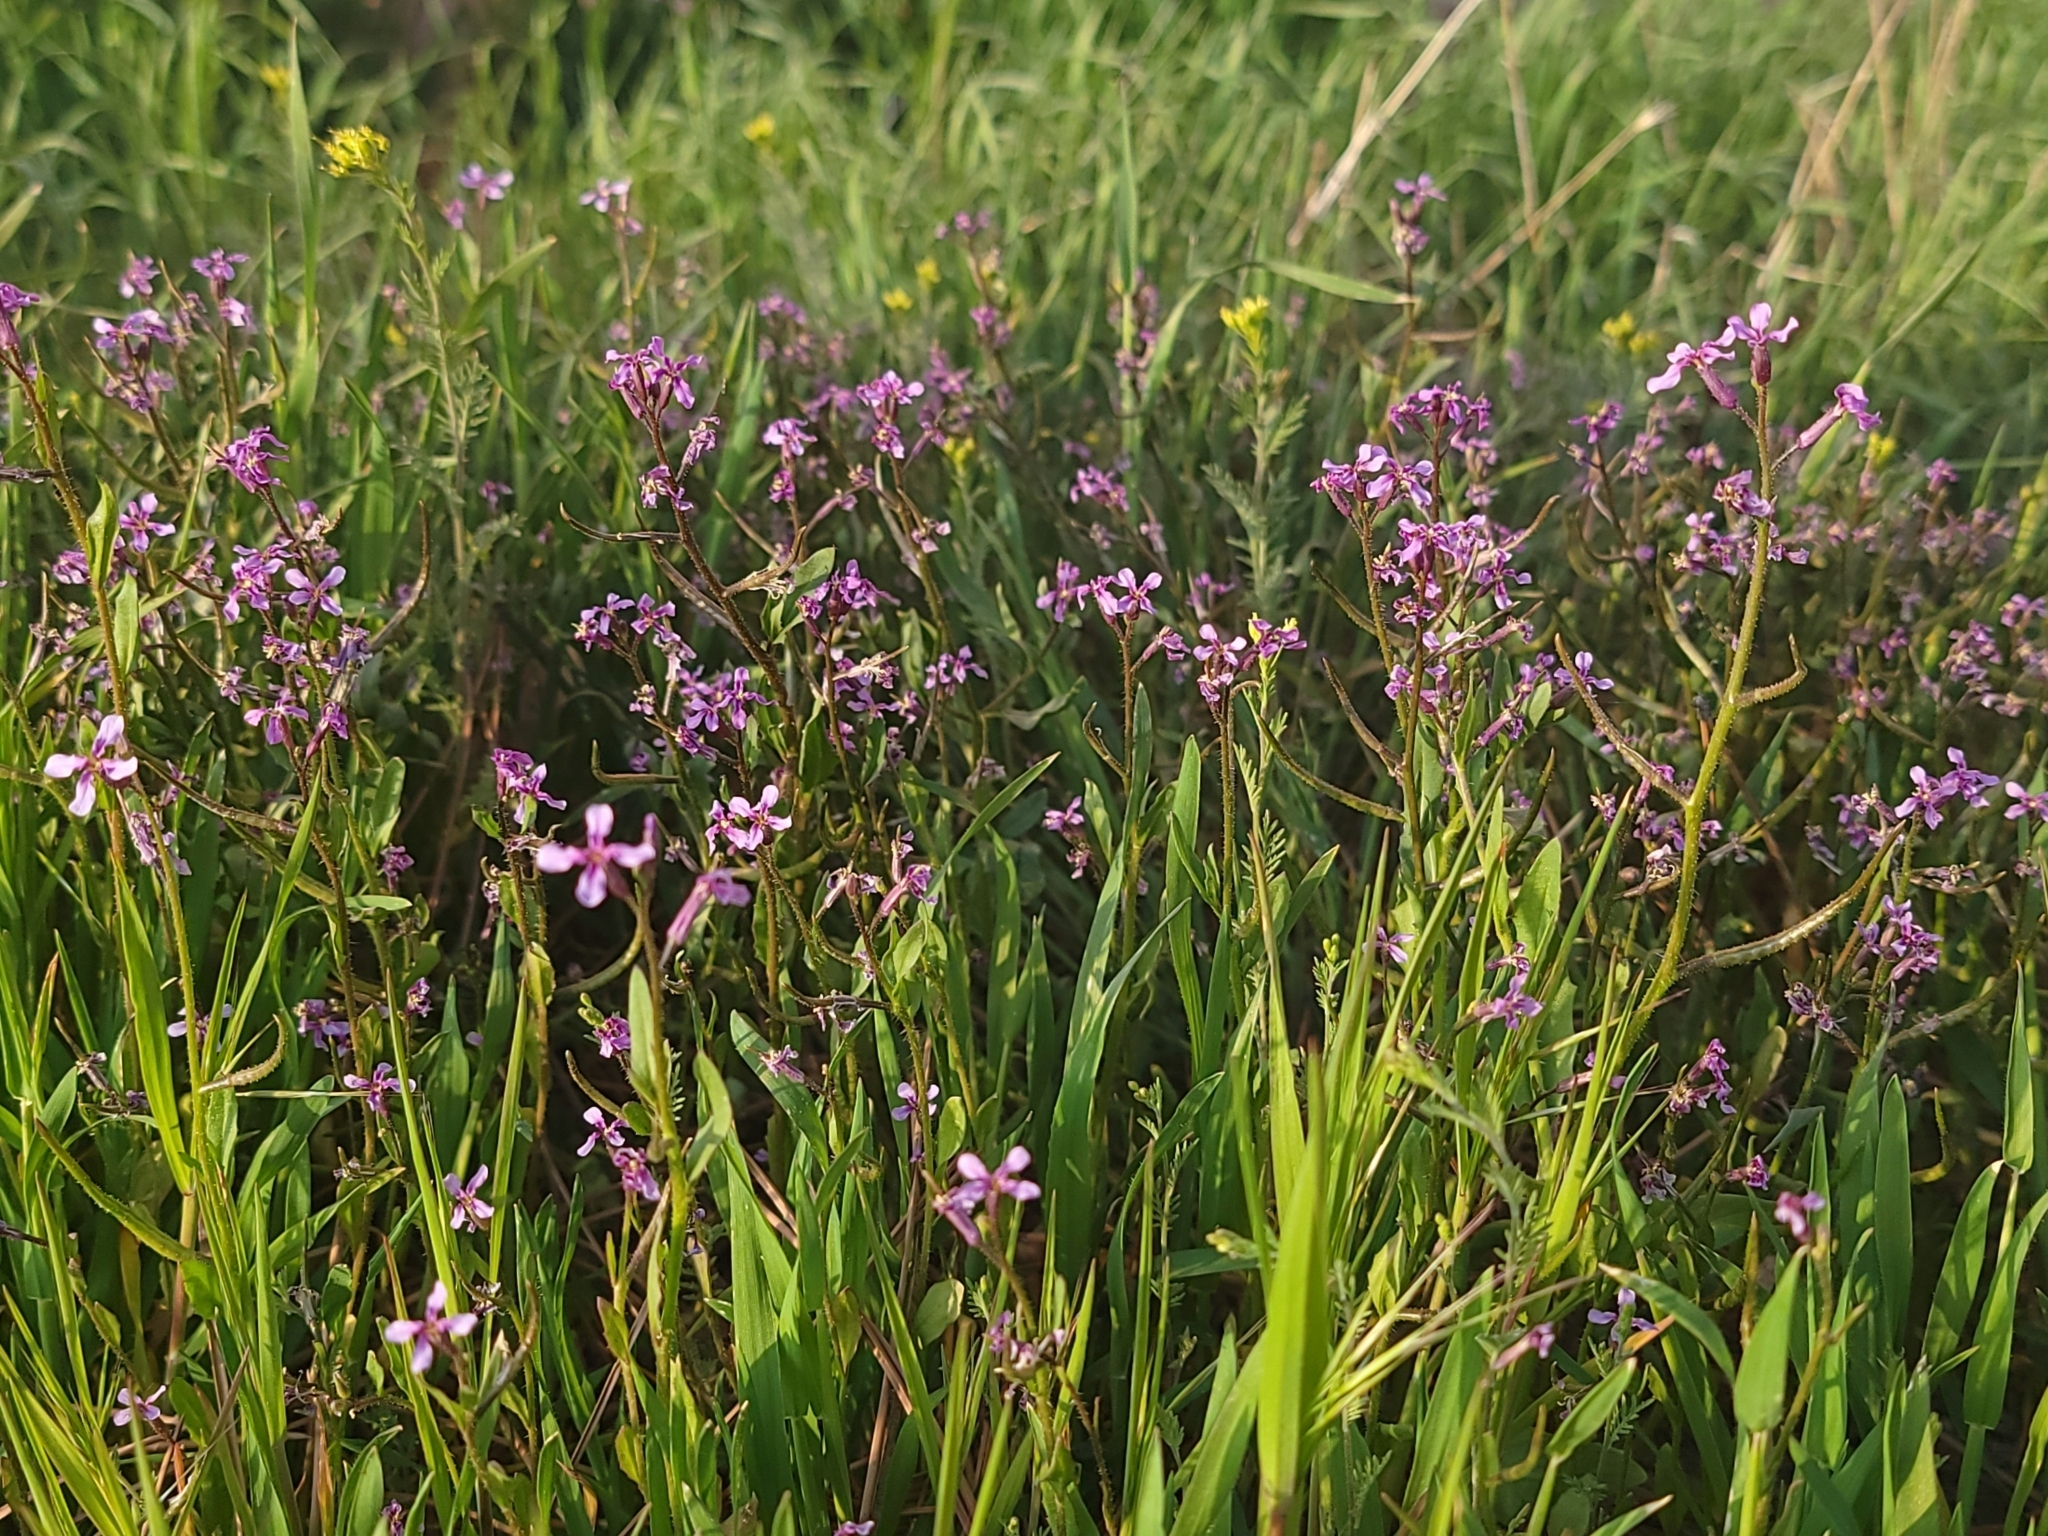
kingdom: Plantae
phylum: Tracheophyta
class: Magnoliopsida
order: Brassicales
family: Brassicaceae
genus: Chorispora
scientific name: Chorispora tenella
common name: Crossflower
